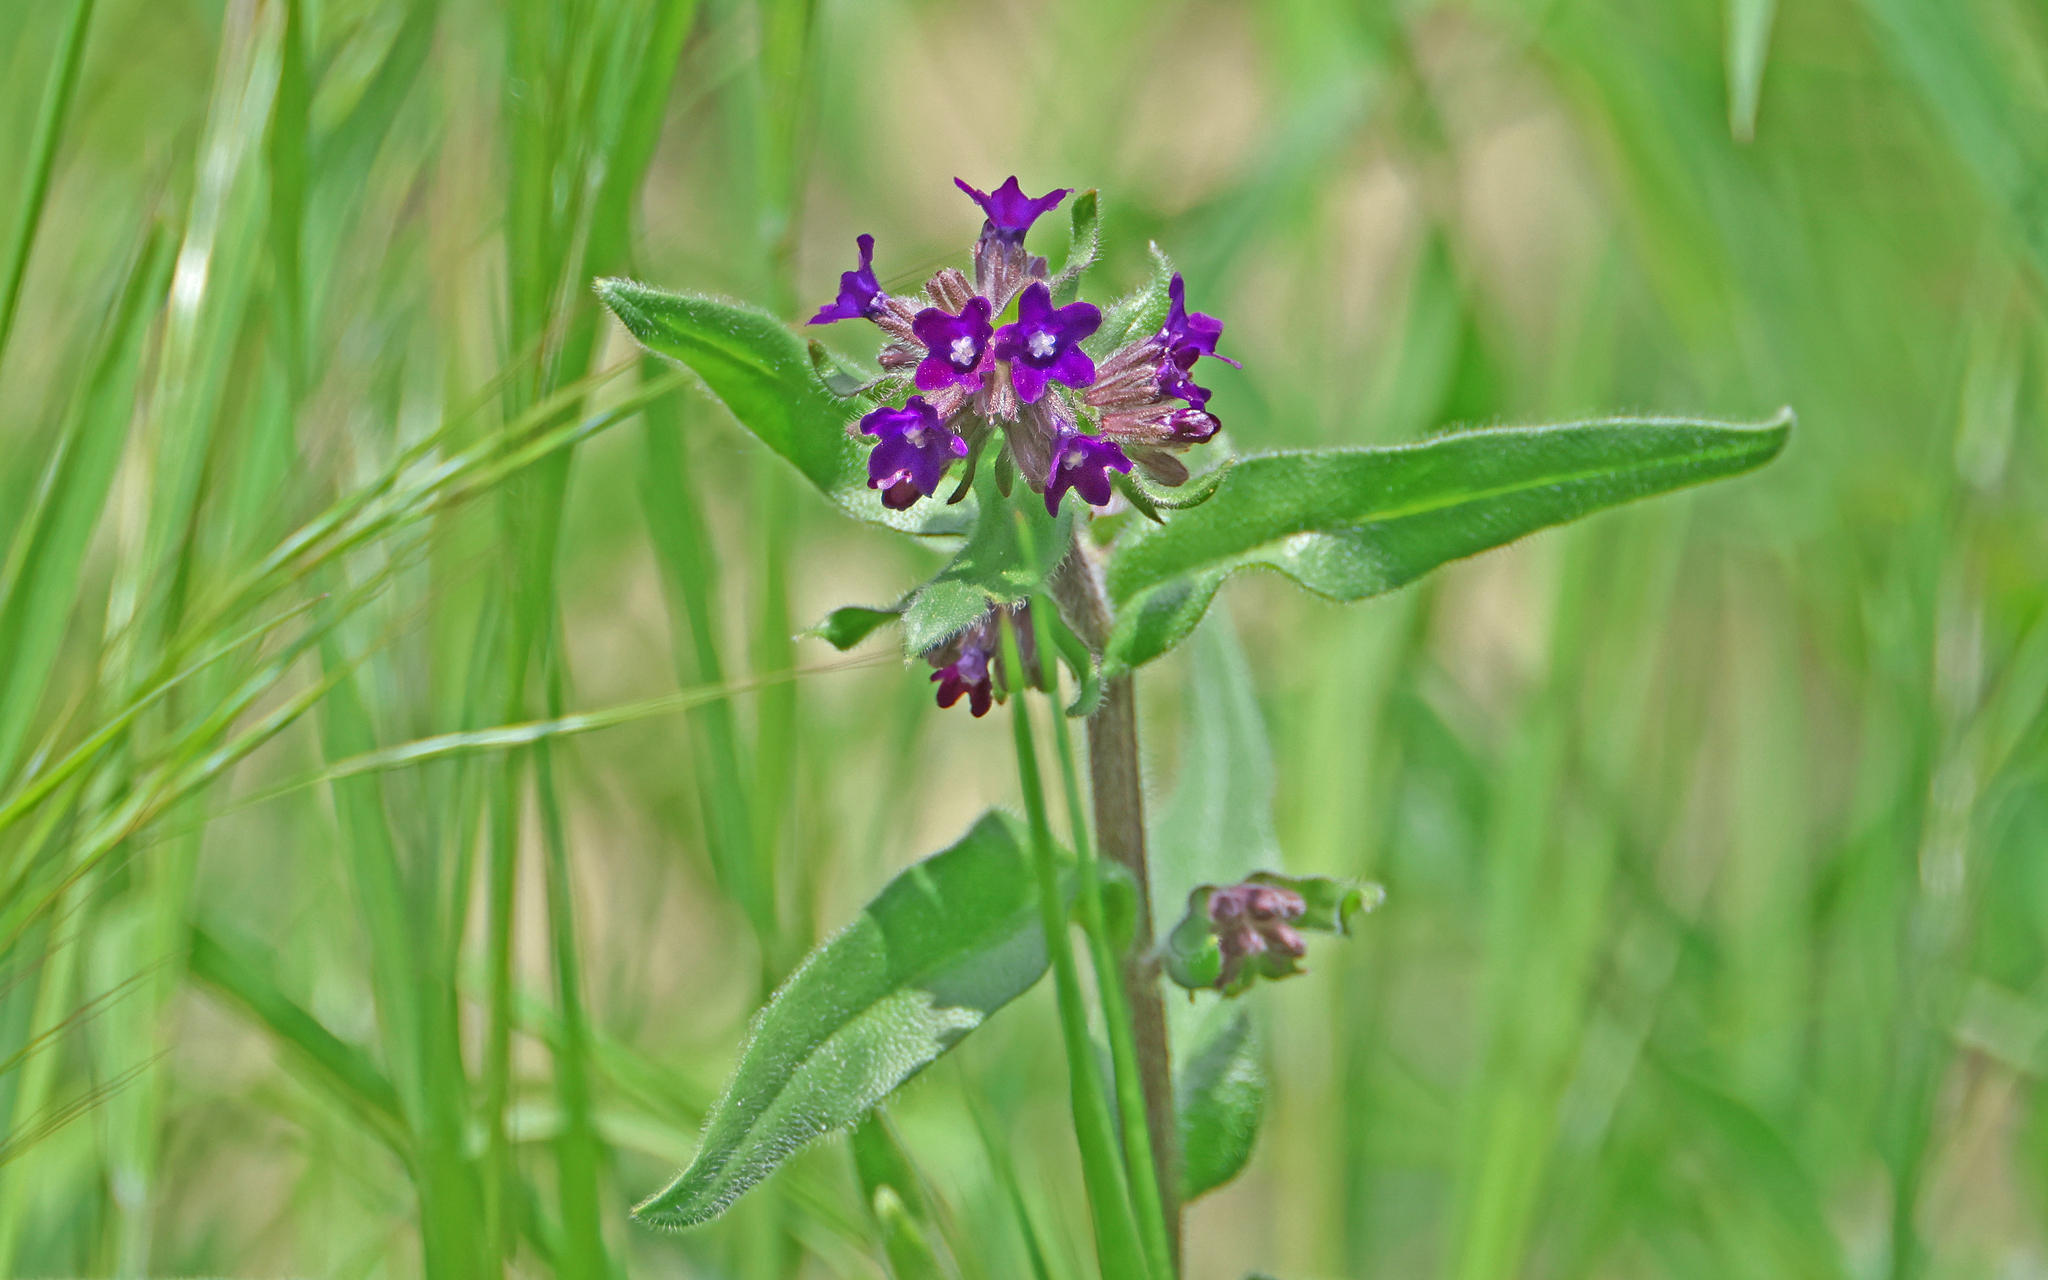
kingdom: Plantae
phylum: Tracheophyta
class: Magnoliopsida
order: Boraginales
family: Boraginaceae
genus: Anchusa
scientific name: Anchusa officinalis
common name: Alkanet
